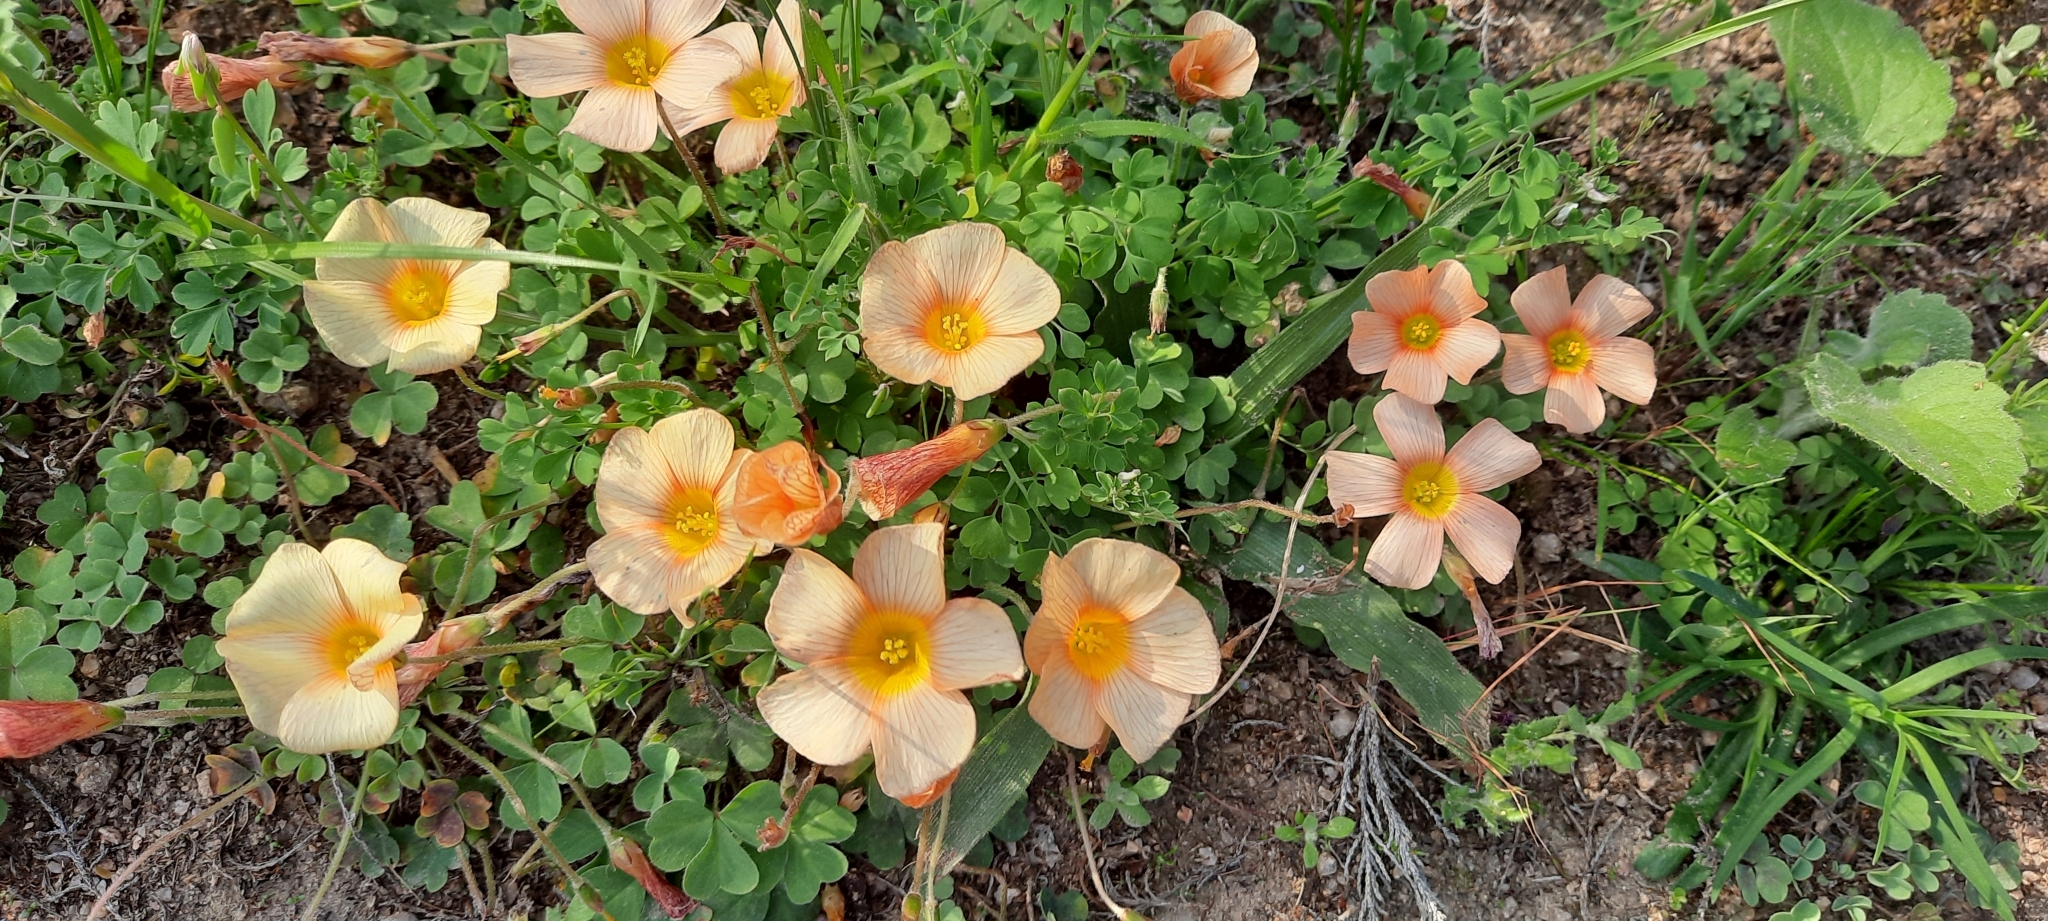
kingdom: Plantae
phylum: Tracheophyta
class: Magnoliopsida
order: Oxalidales
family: Oxalidaceae
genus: Oxalis
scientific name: Oxalis obtusa
